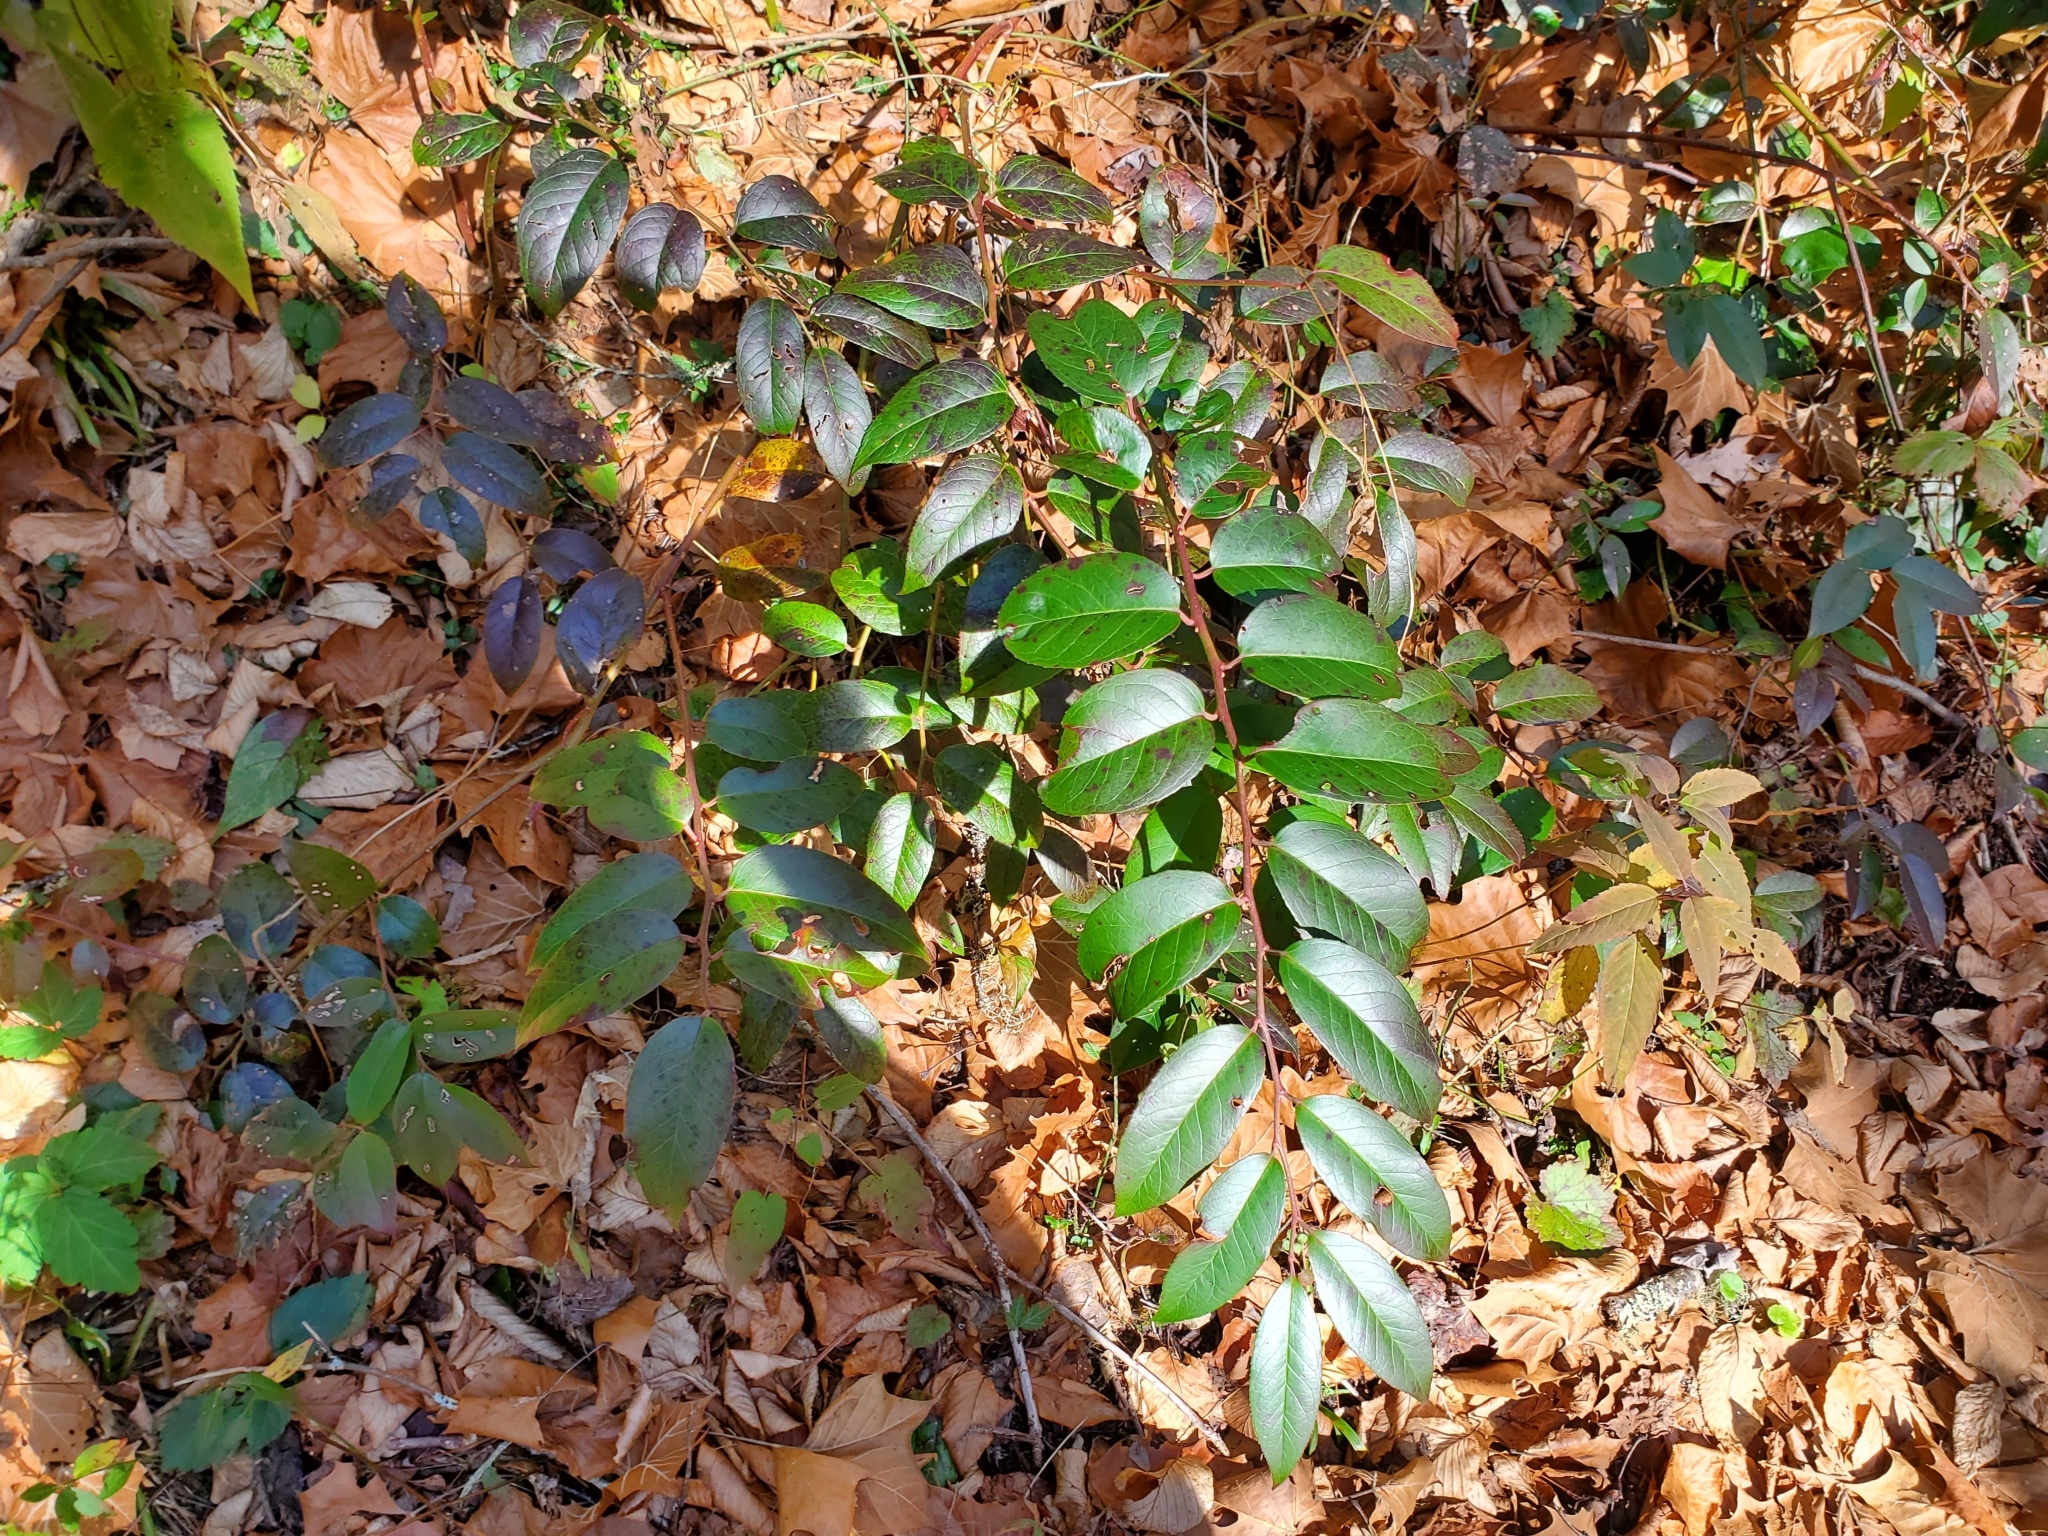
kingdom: Plantae
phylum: Tracheophyta
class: Magnoliopsida
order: Ericales
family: Ericaceae
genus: Leucothoe
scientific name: Leucothoe fontanesiana
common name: Fetterbush
